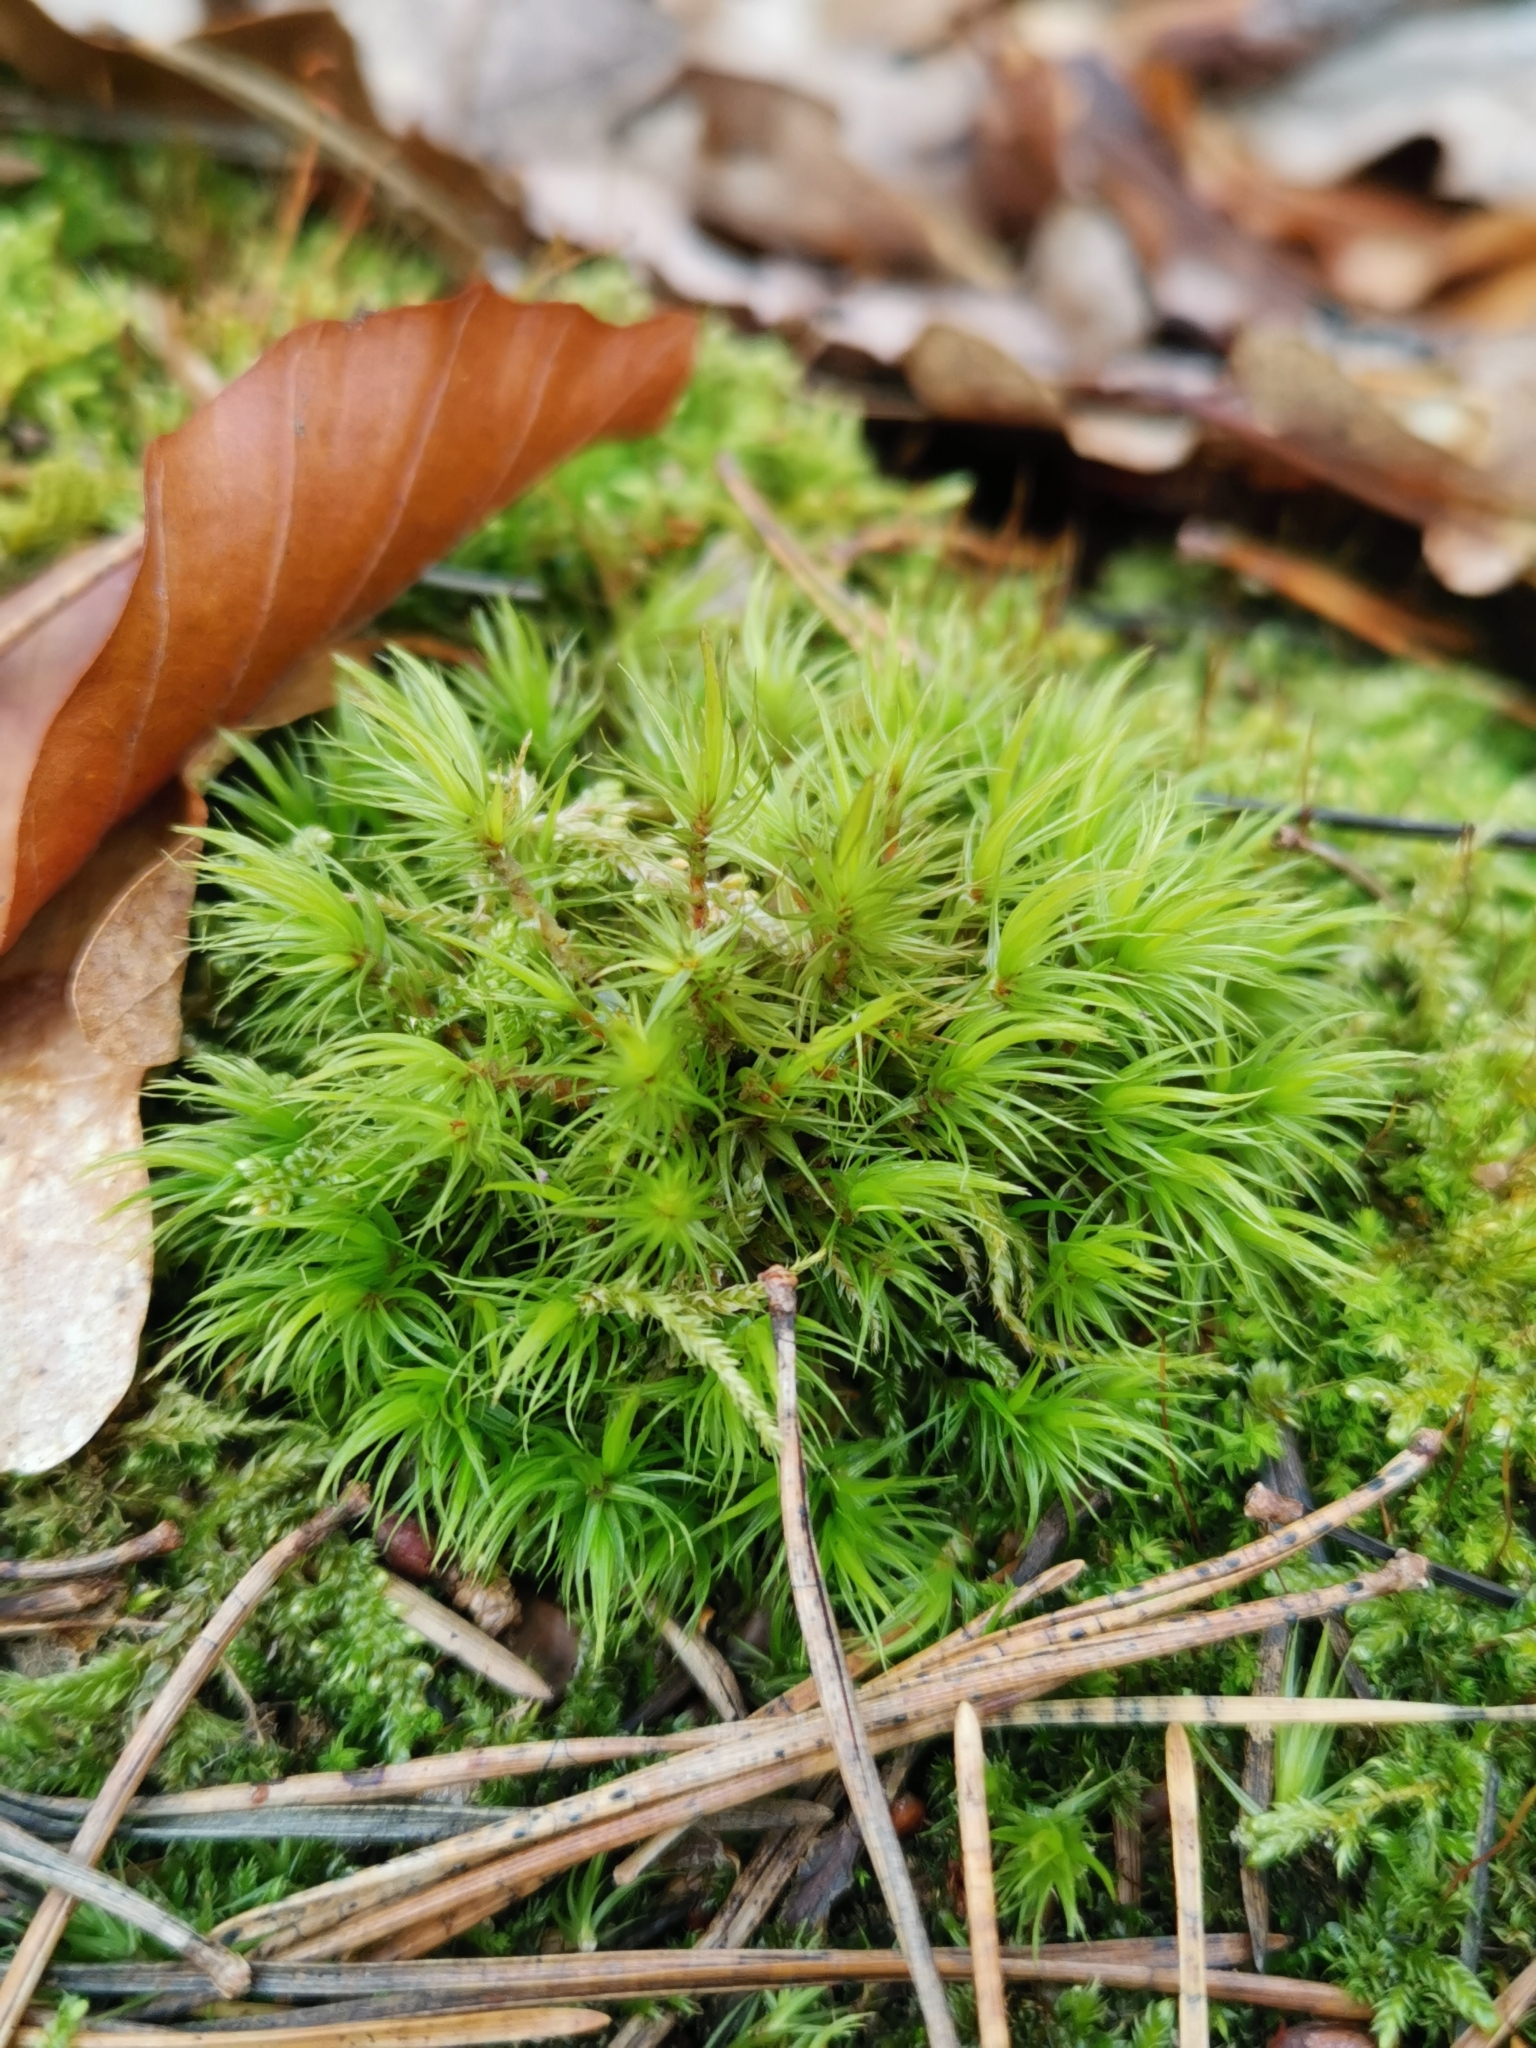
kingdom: Plantae
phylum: Bryophyta
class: Bryopsida
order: Dicranales
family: Dicranaceae
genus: Dicranum
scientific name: Dicranum scoparium
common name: Broom fork-moss
